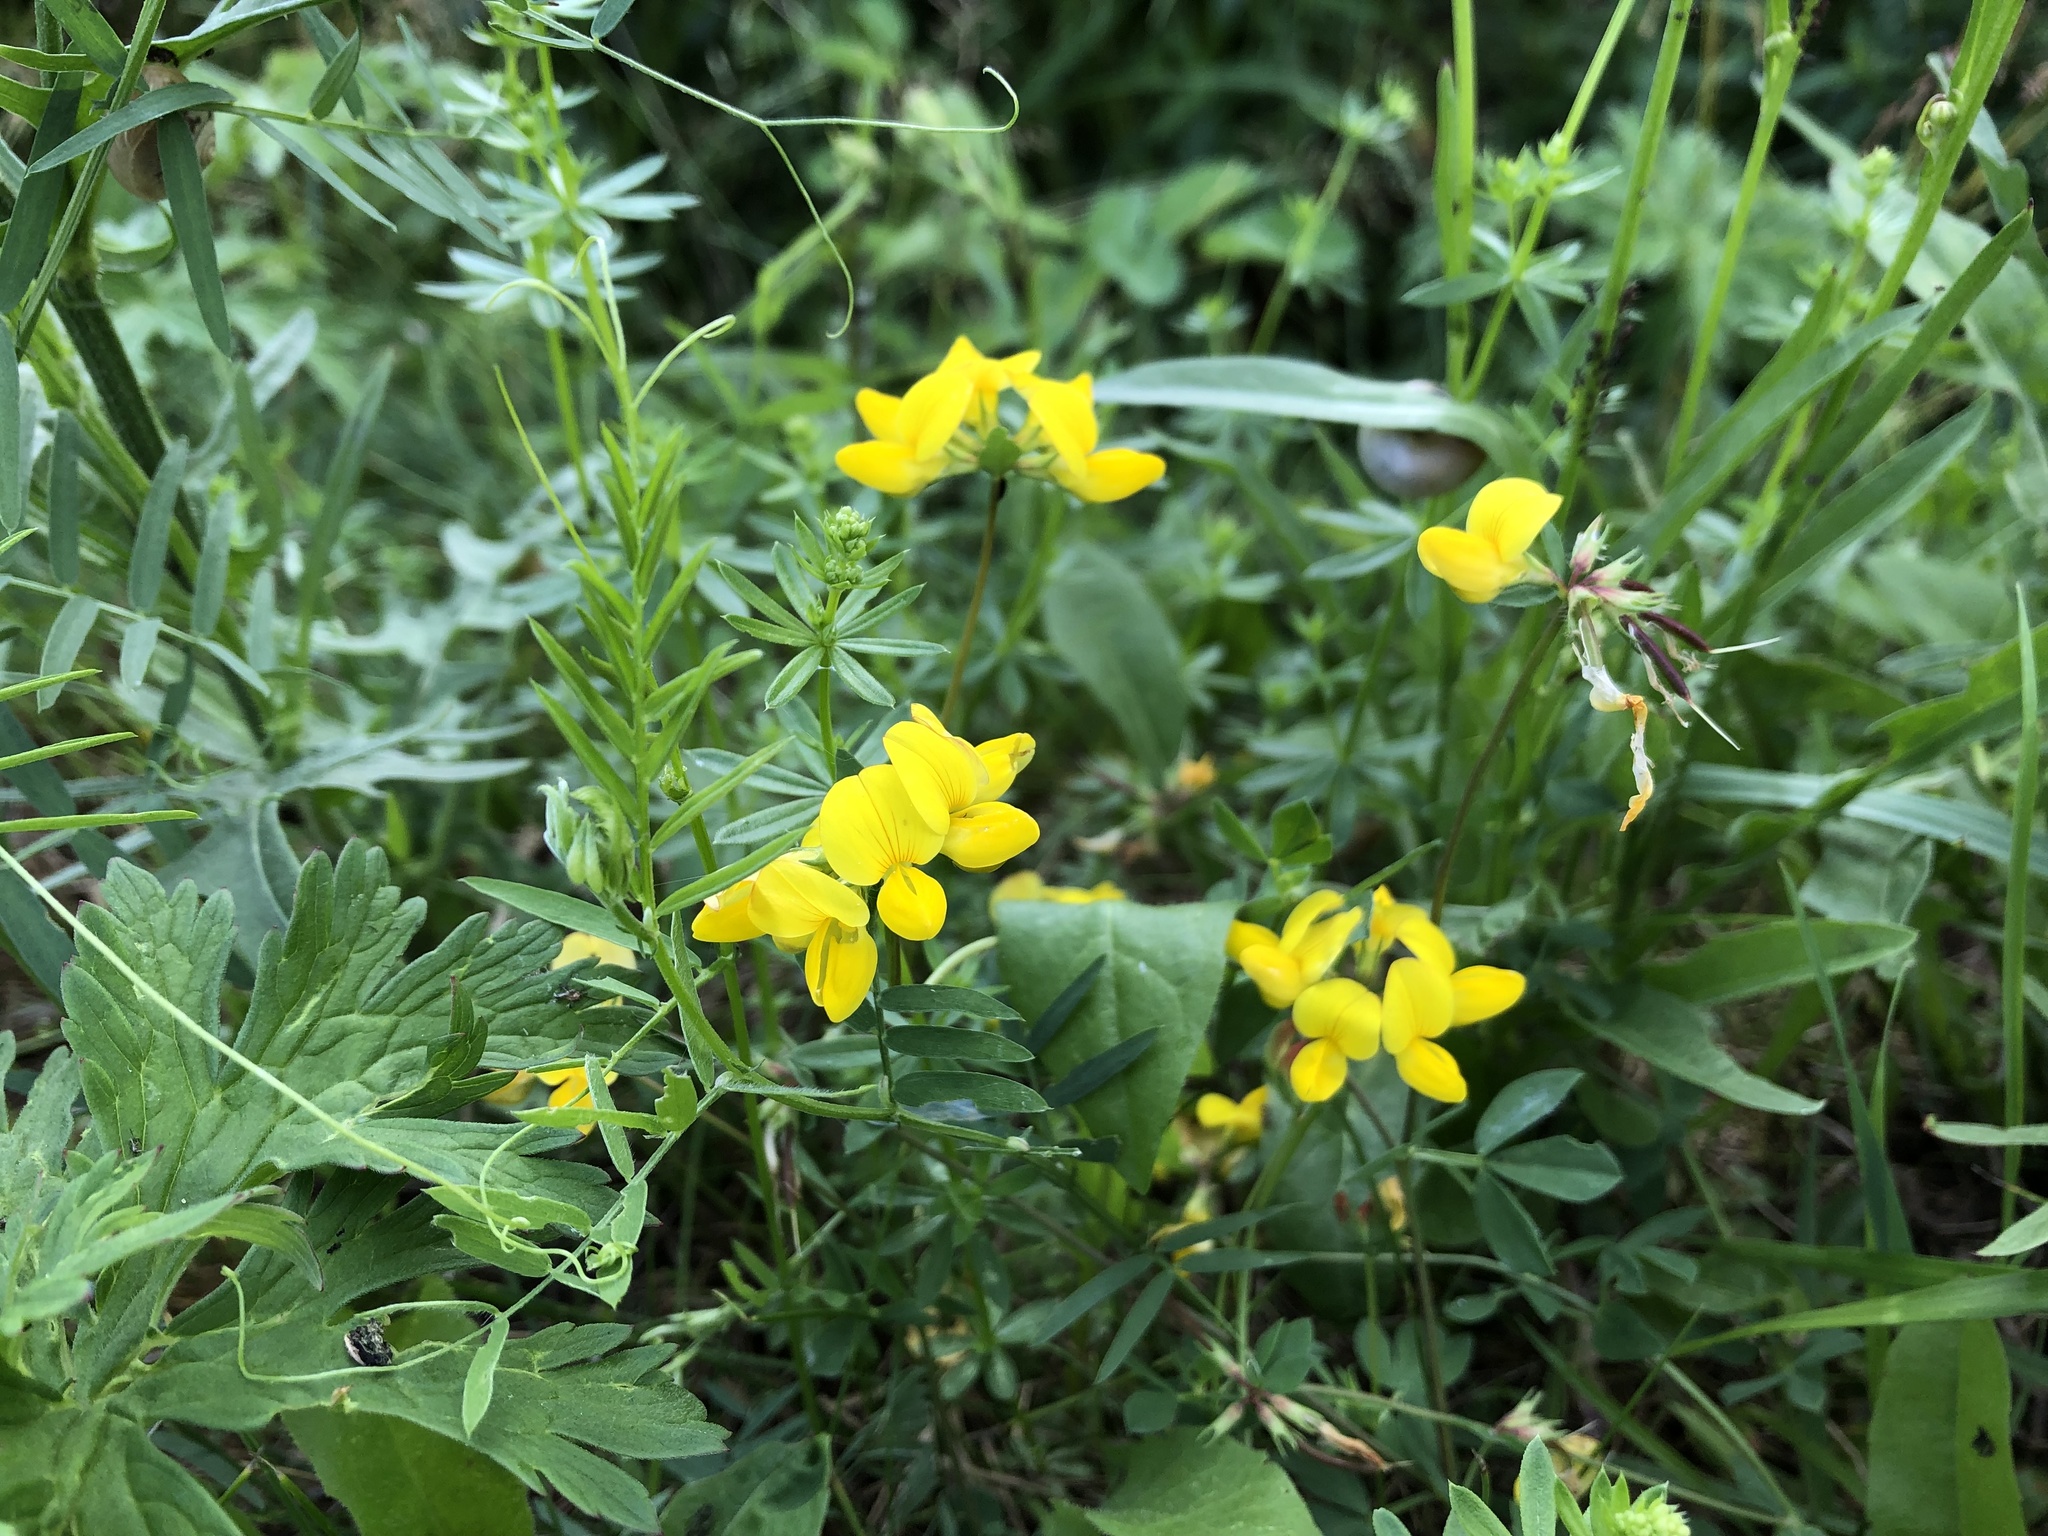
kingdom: Plantae
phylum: Tracheophyta
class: Magnoliopsida
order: Fabales
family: Fabaceae
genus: Lotus
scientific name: Lotus corniculatus
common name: Common bird's-foot-trefoil
